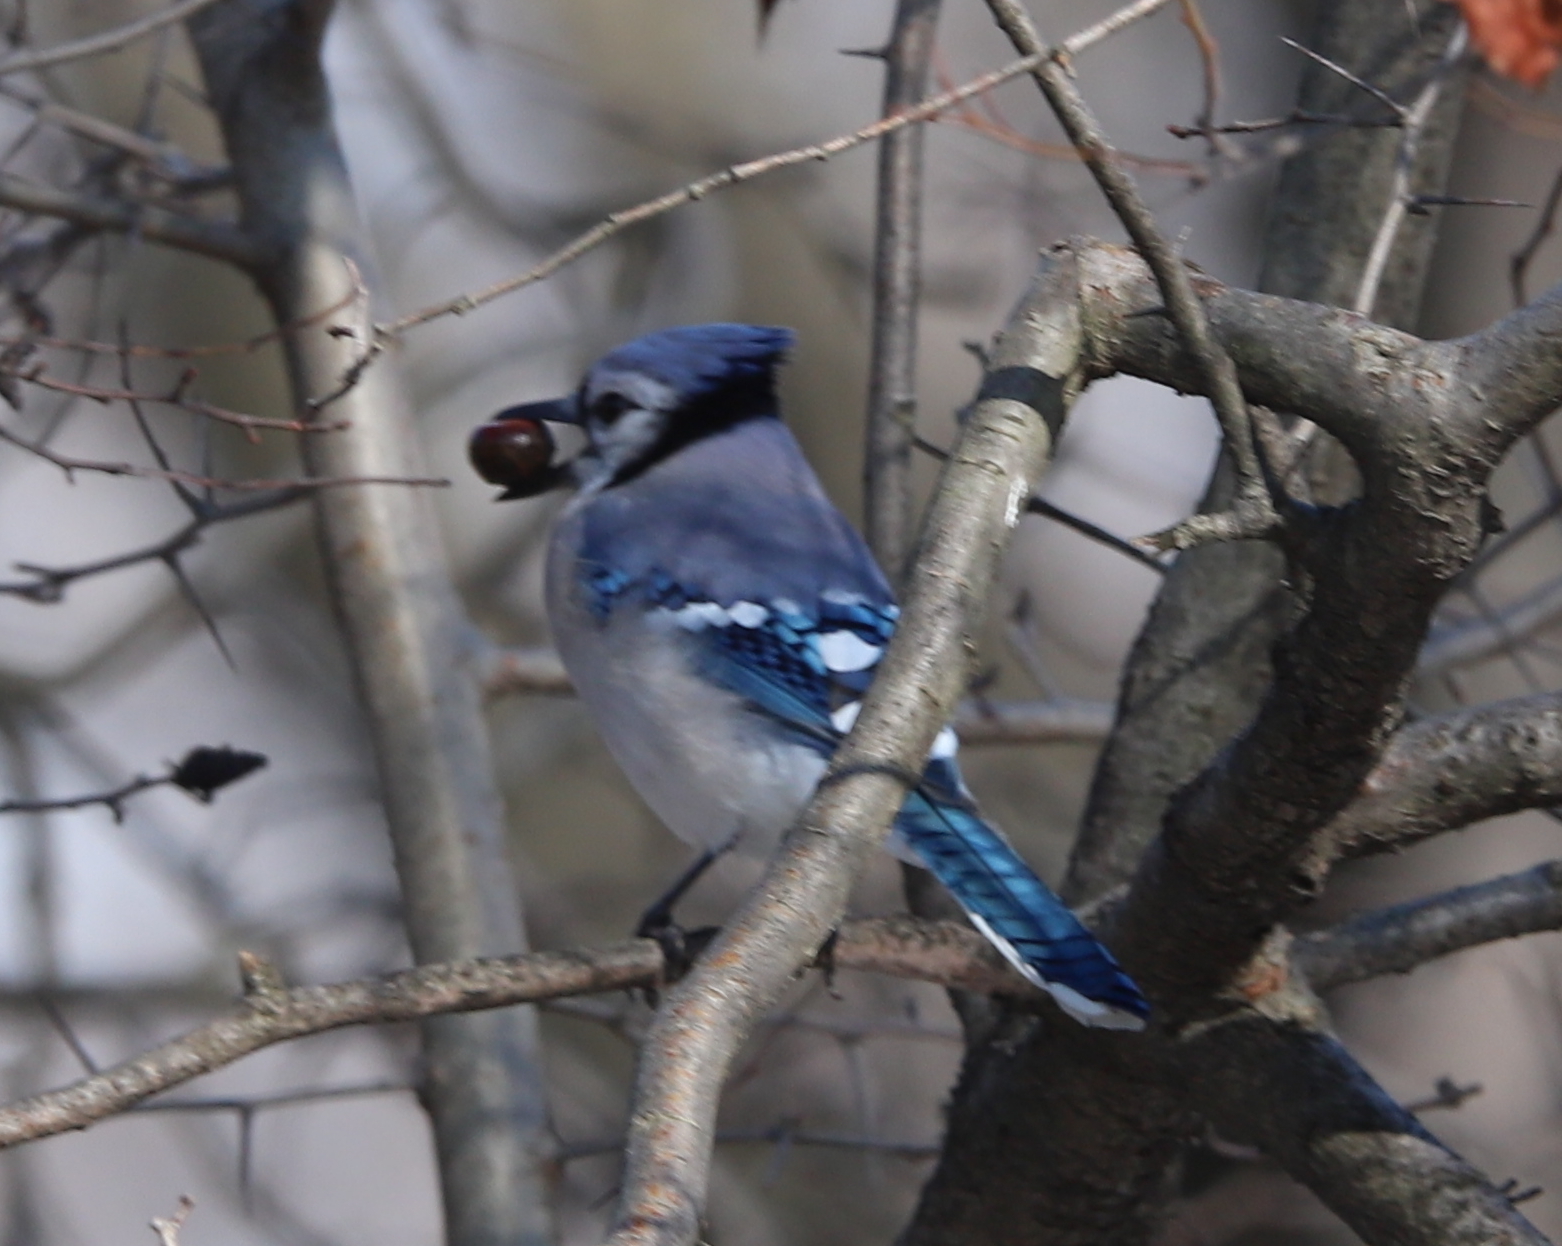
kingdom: Animalia
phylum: Chordata
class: Aves
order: Passeriformes
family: Corvidae
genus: Cyanocitta
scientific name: Cyanocitta cristata
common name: Blue jay
